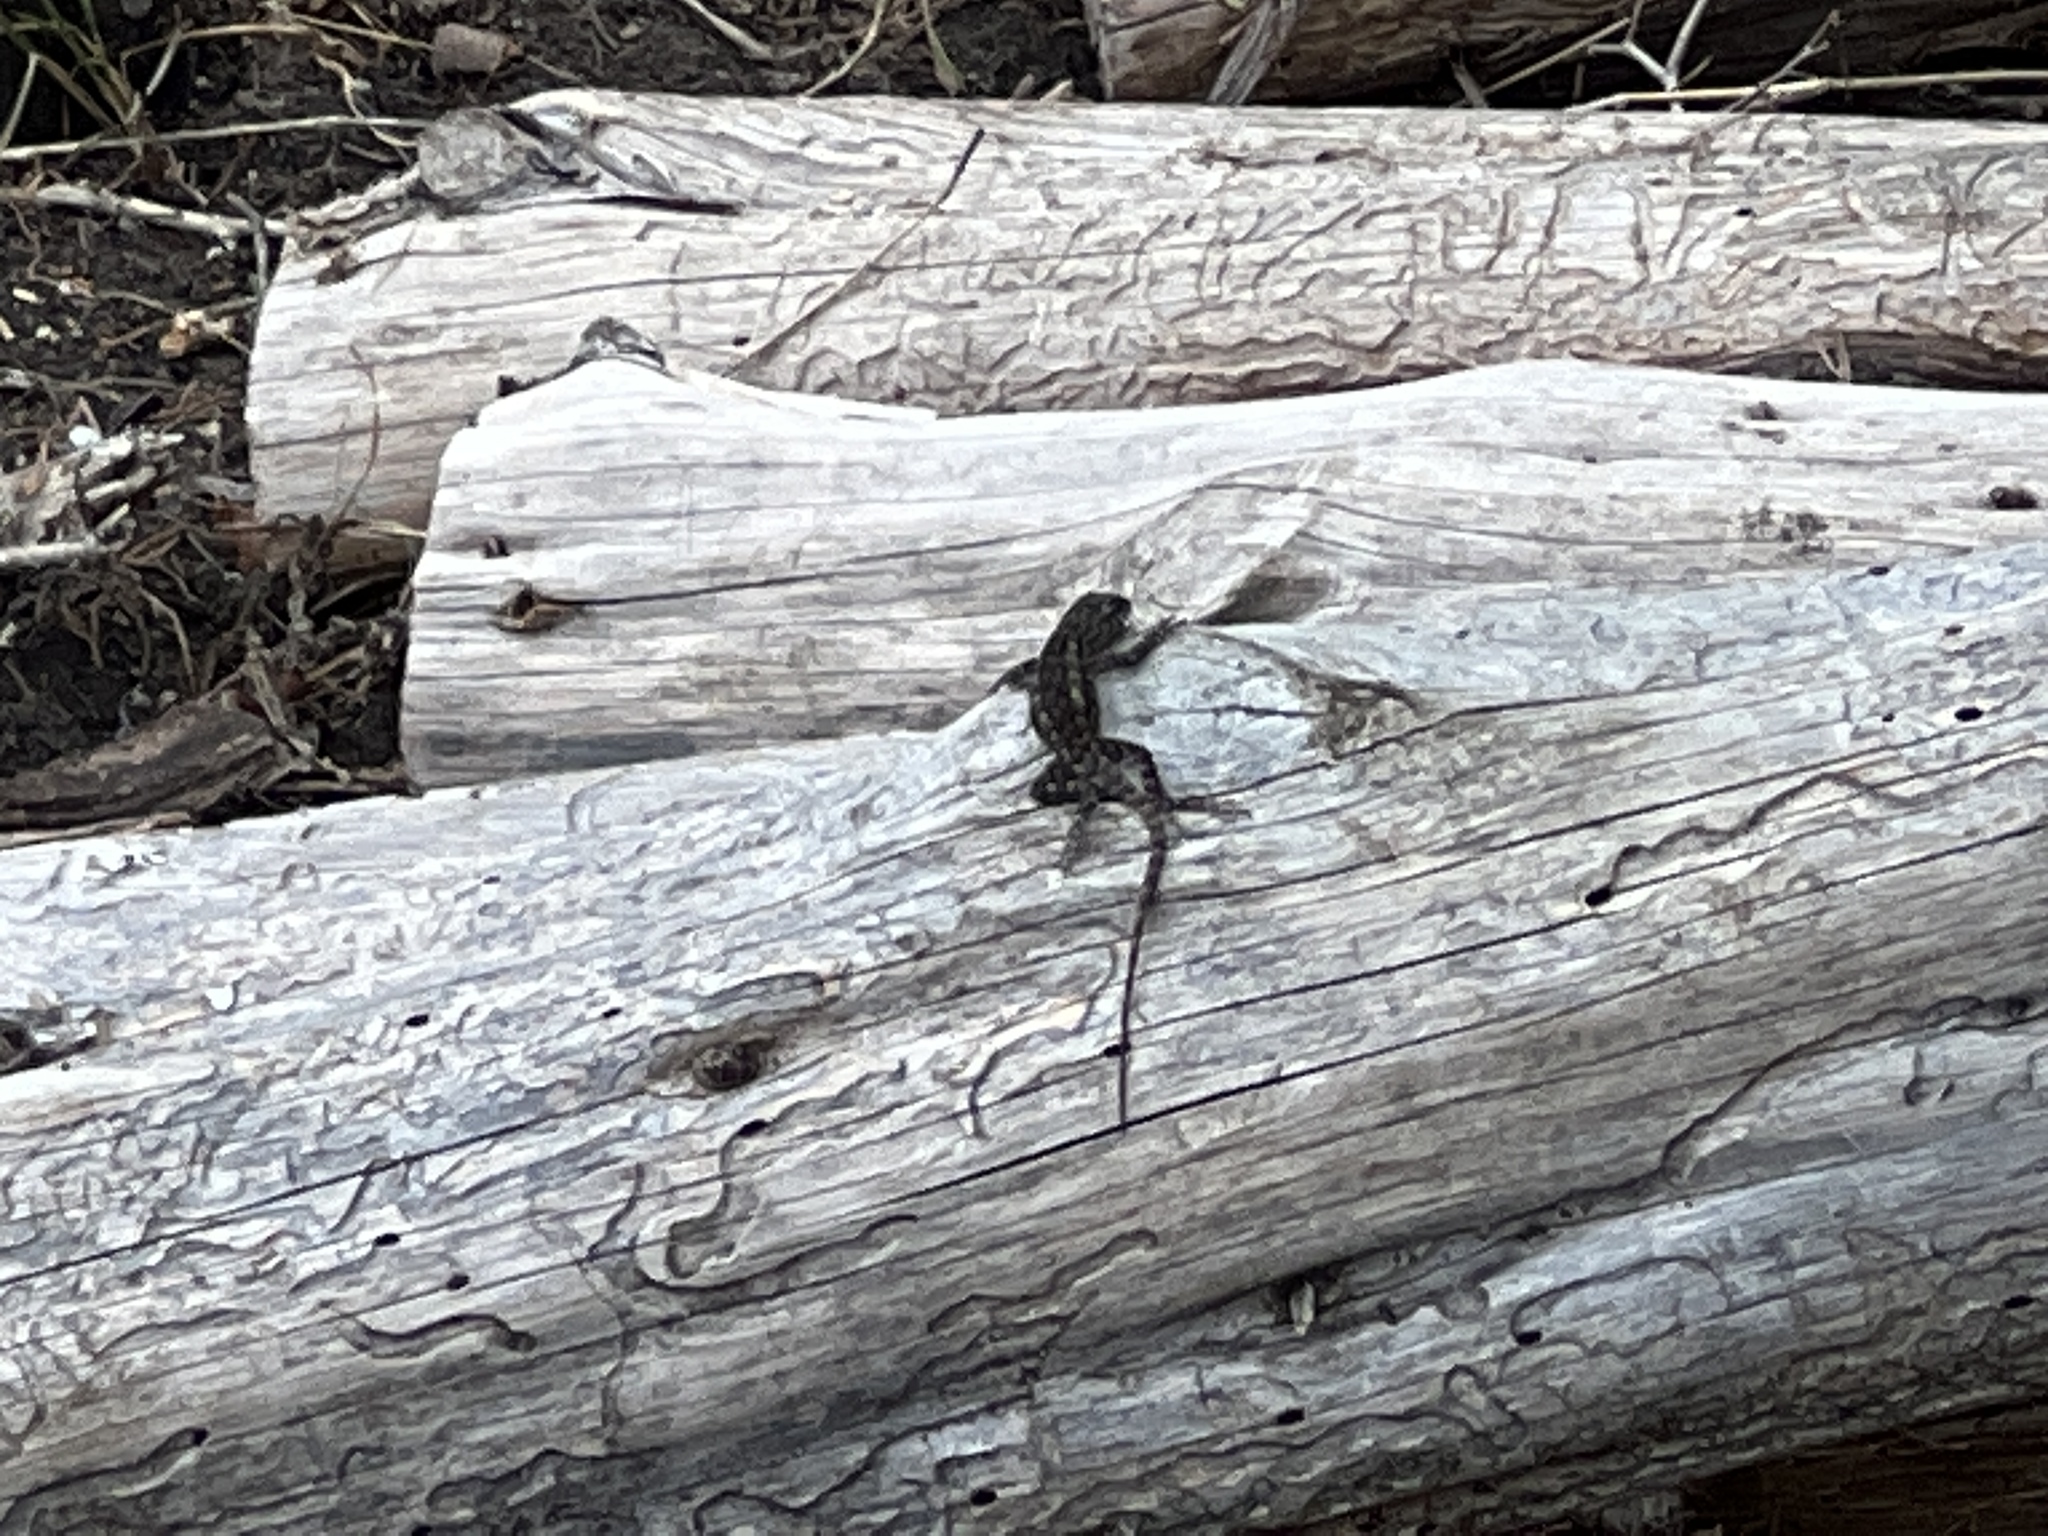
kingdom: Animalia
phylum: Chordata
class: Squamata
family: Phrynosomatidae
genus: Sceloporus
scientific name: Sceloporus olivaceus
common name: Texas spiny lizard
